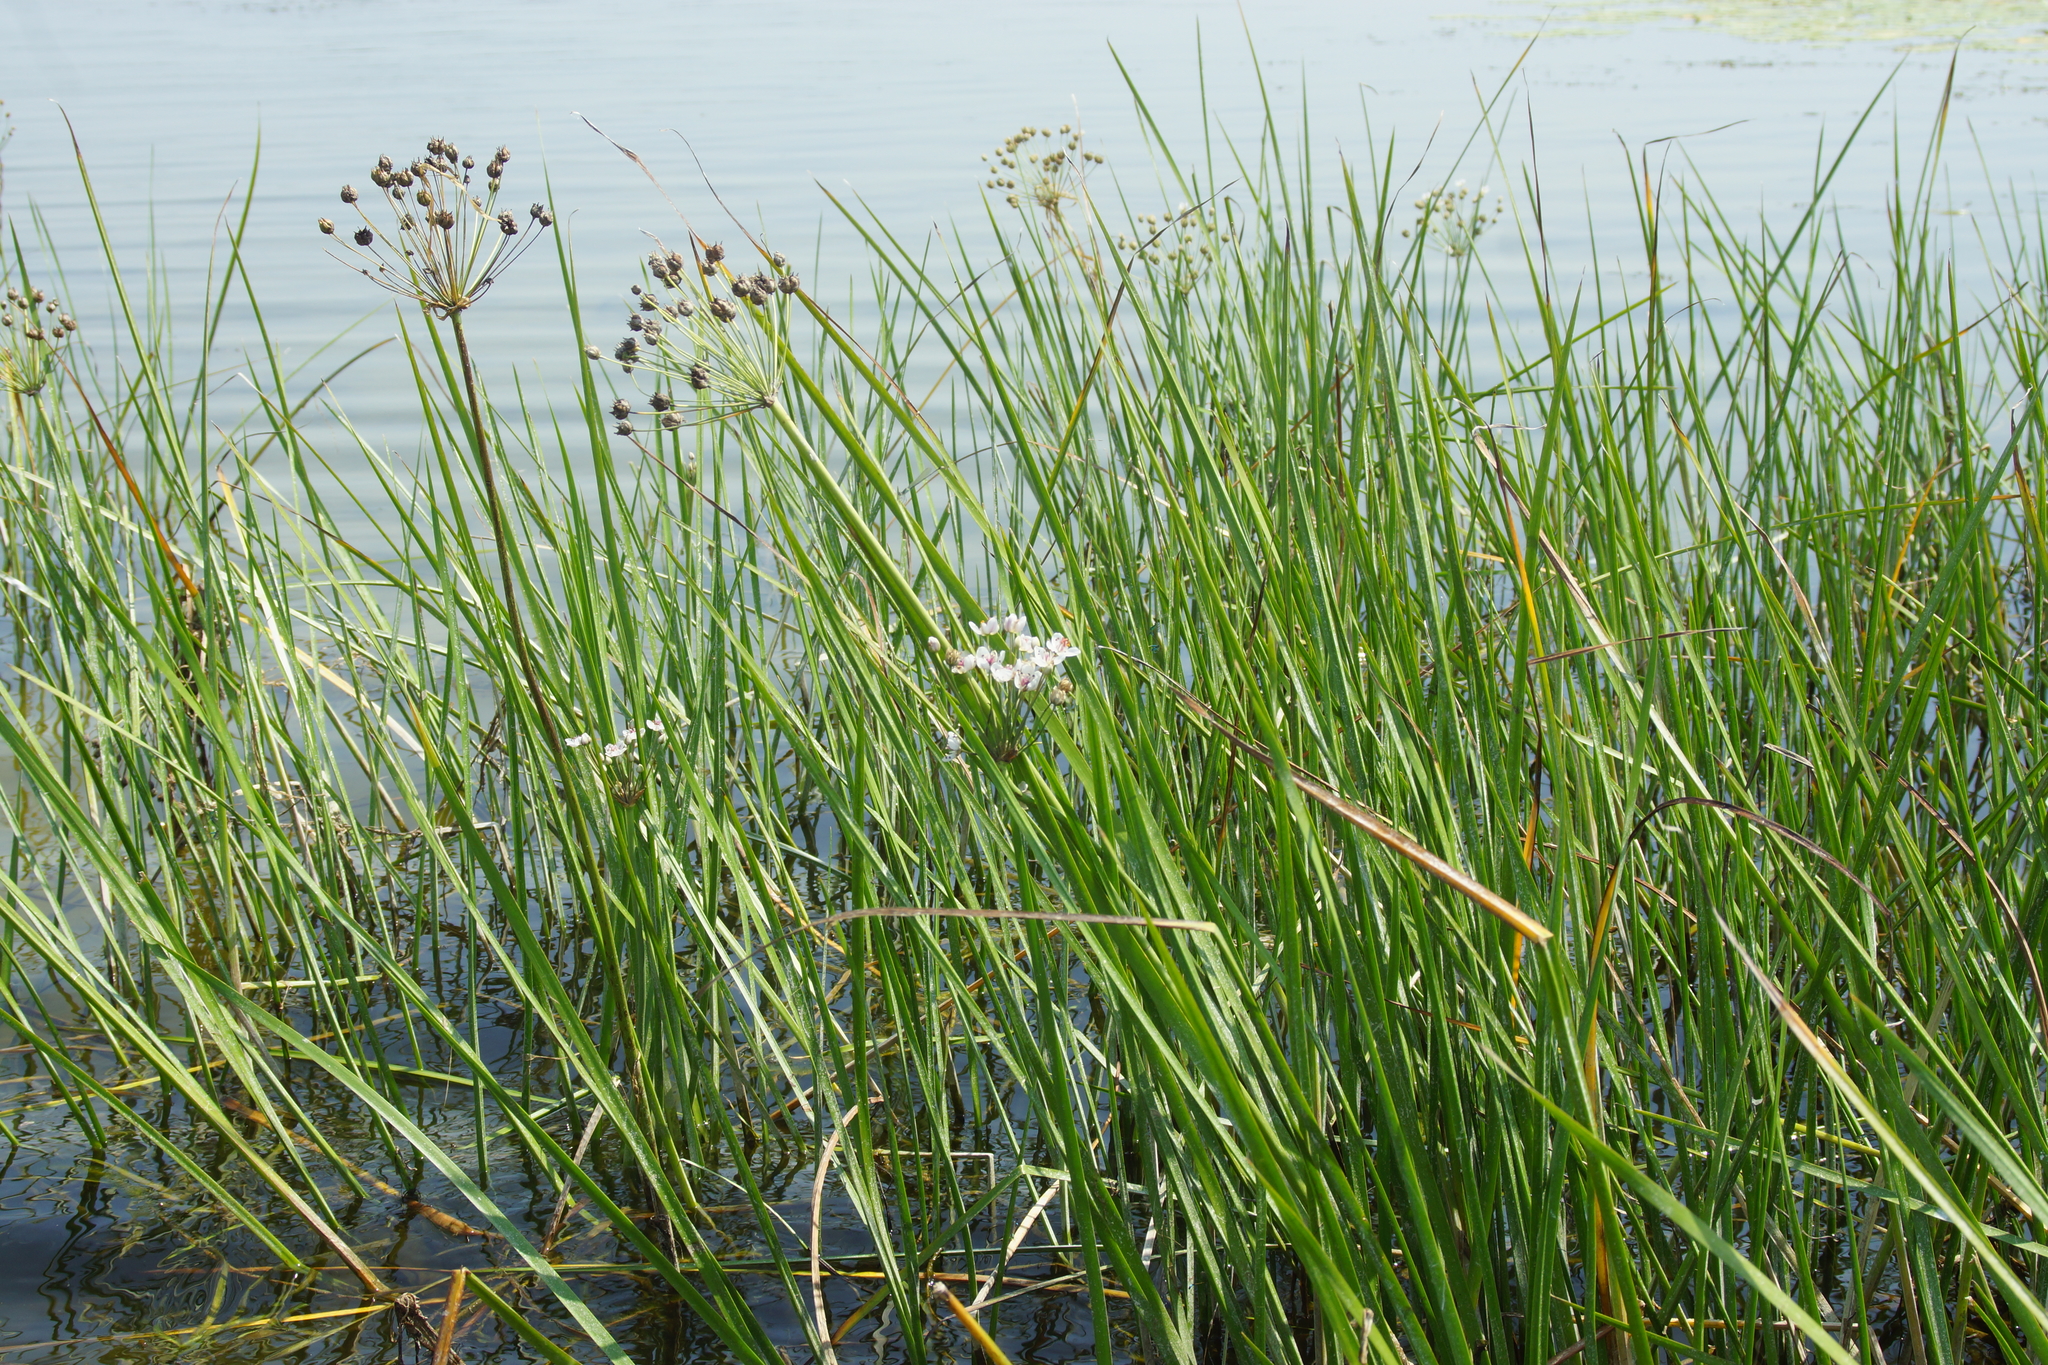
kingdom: Plantae
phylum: Tracheophyta
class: Liliopsida
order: Alismatales
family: Butomaceae
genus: Butomus
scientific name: Butomus umbellatus
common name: Flowering-rush
